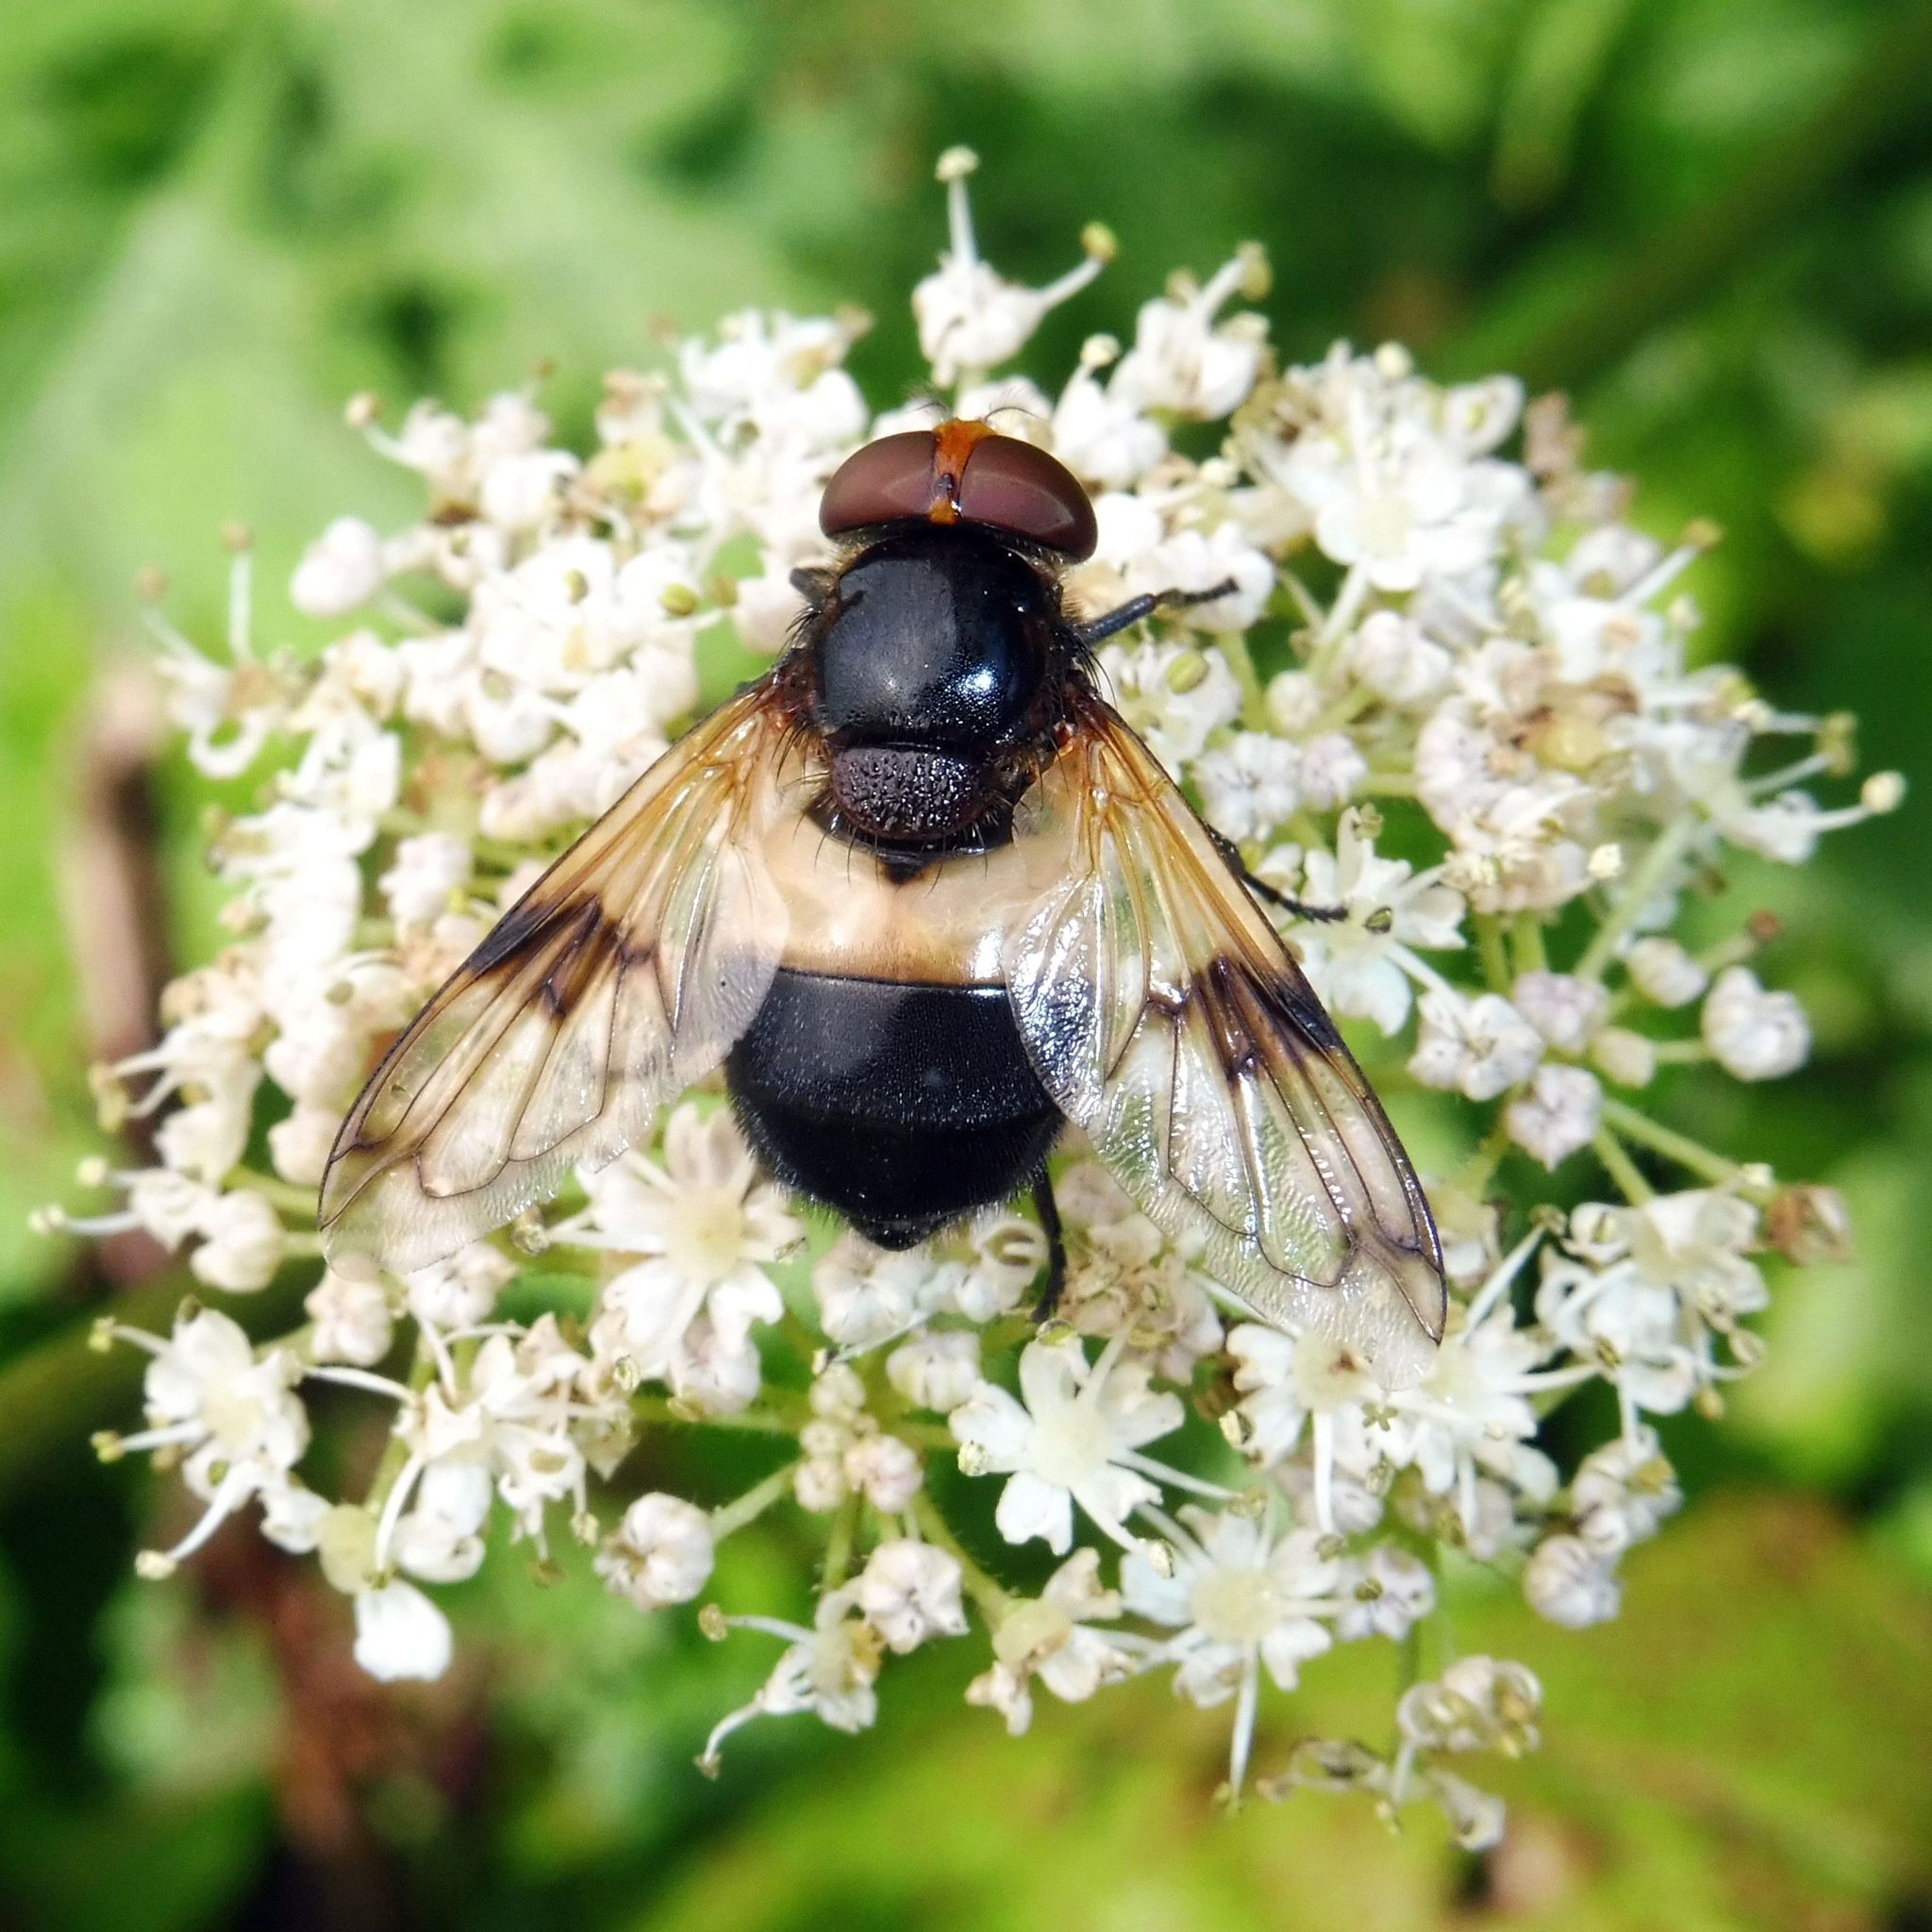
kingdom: Animalia
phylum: Arthropoda
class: Insecta
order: Diptera
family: Syrphidae
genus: Volucella
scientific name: Volucella pellucens
